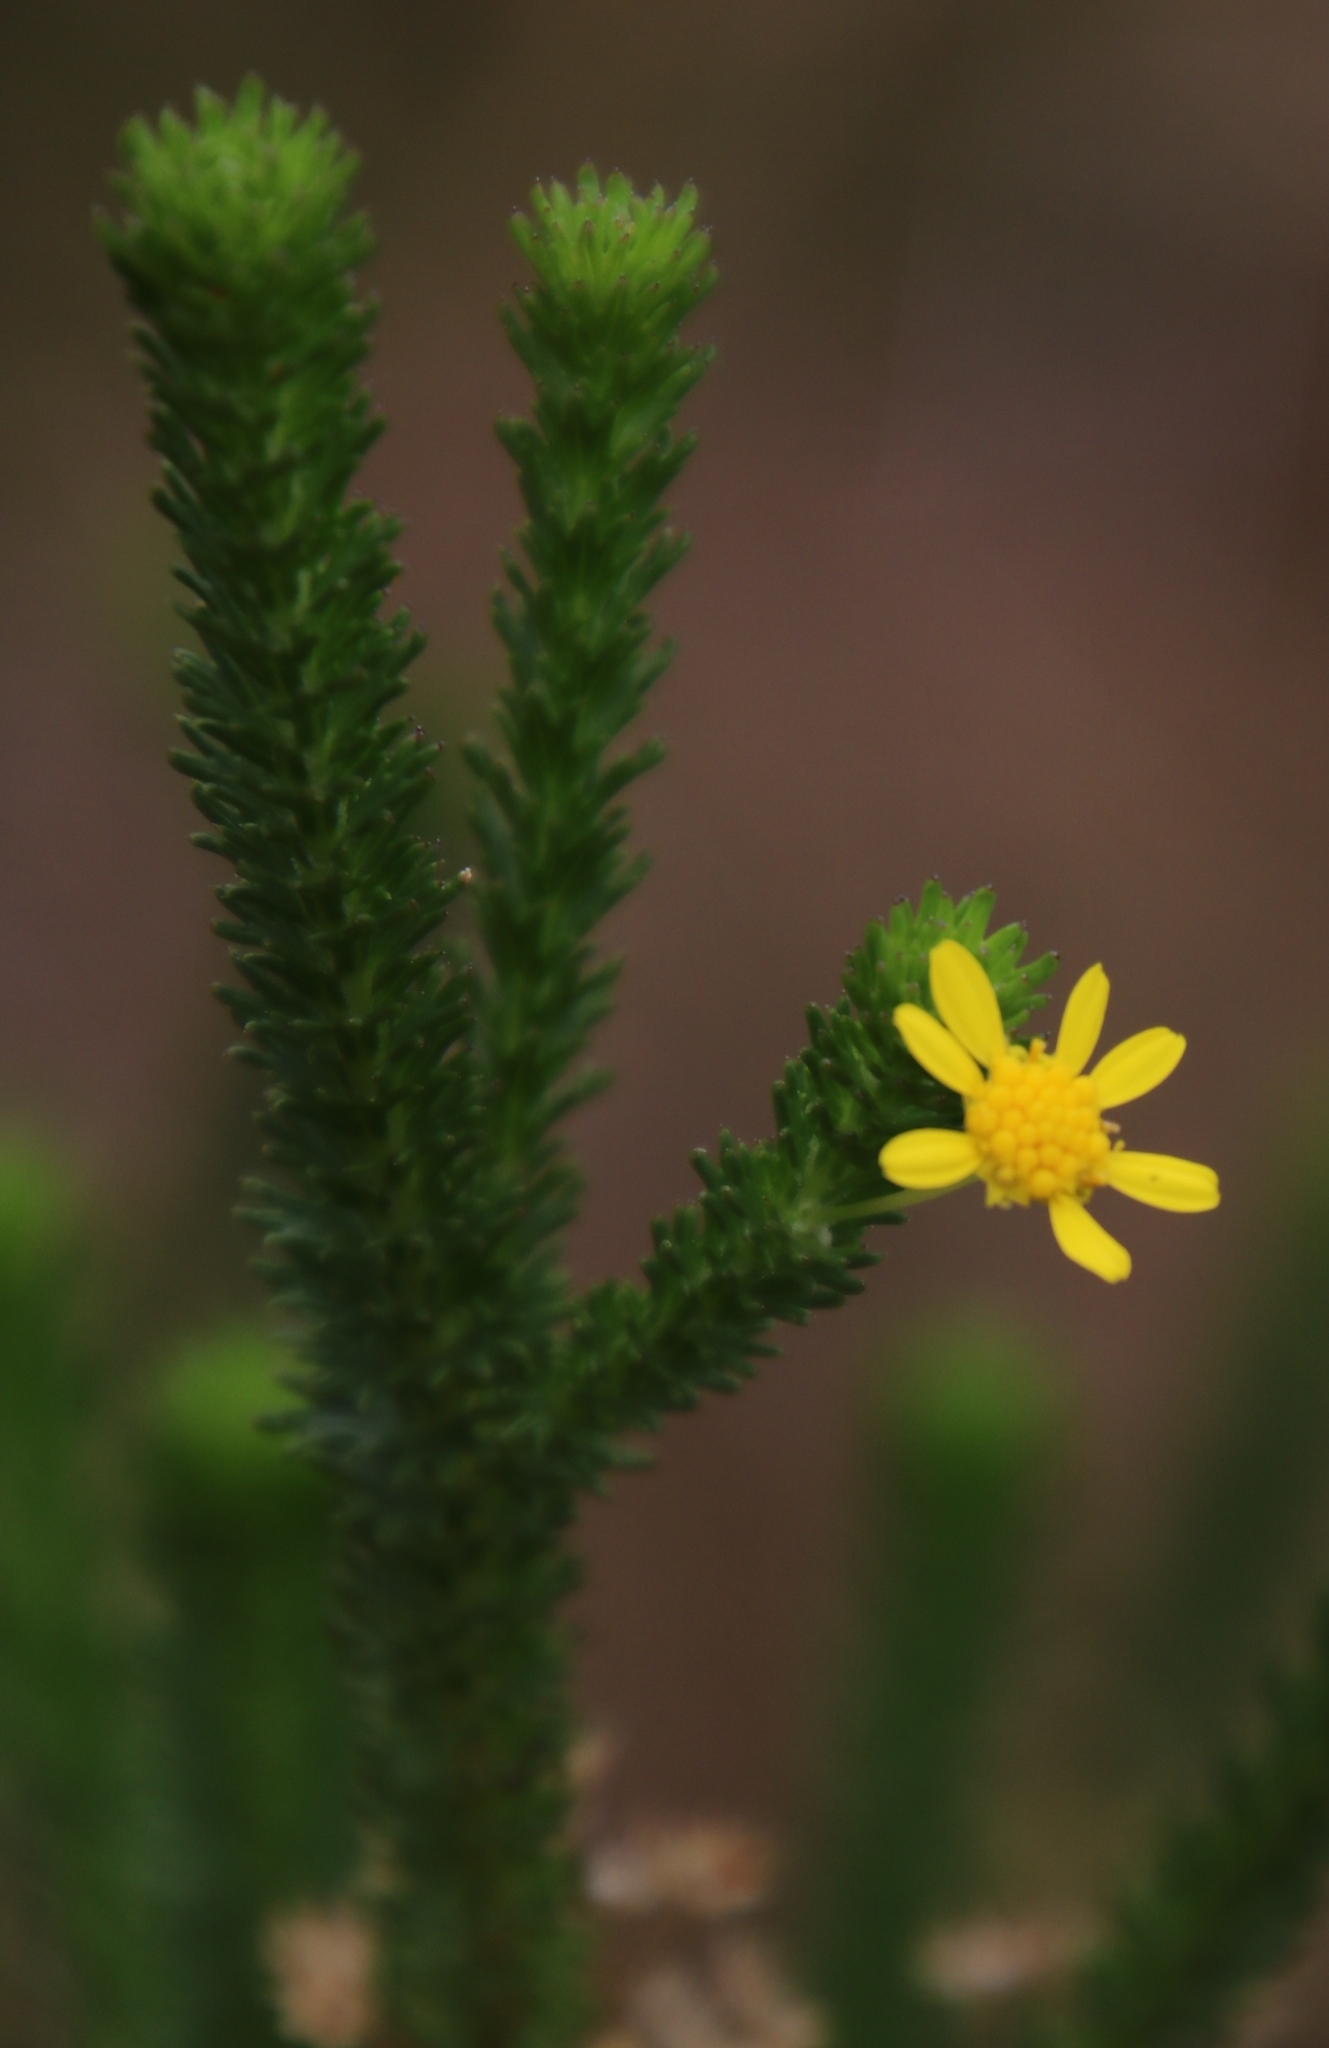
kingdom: Plantae
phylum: Tracheophyta
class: Magnoliopsida
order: Asterales
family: Asteraceae
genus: Euryops
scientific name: Euryops virgineus
